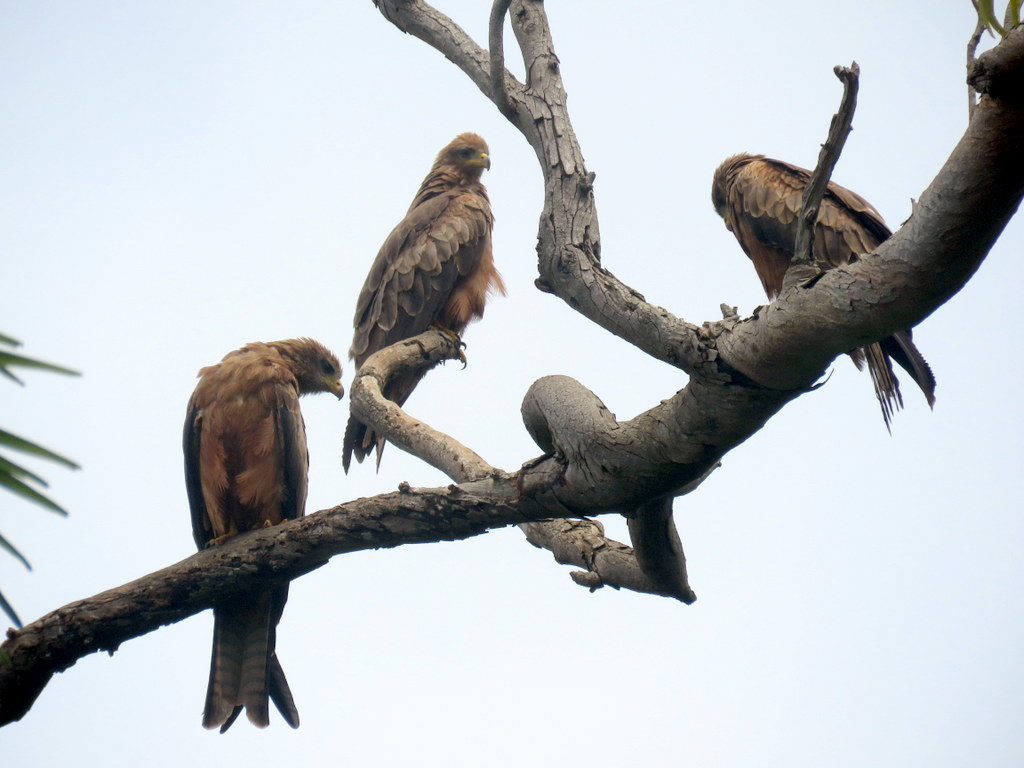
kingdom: Animalia
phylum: Chordata
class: Aves
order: Accipitriformes
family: Accipitridae
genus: Milvus
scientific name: Milvus migrans
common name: Black kite
